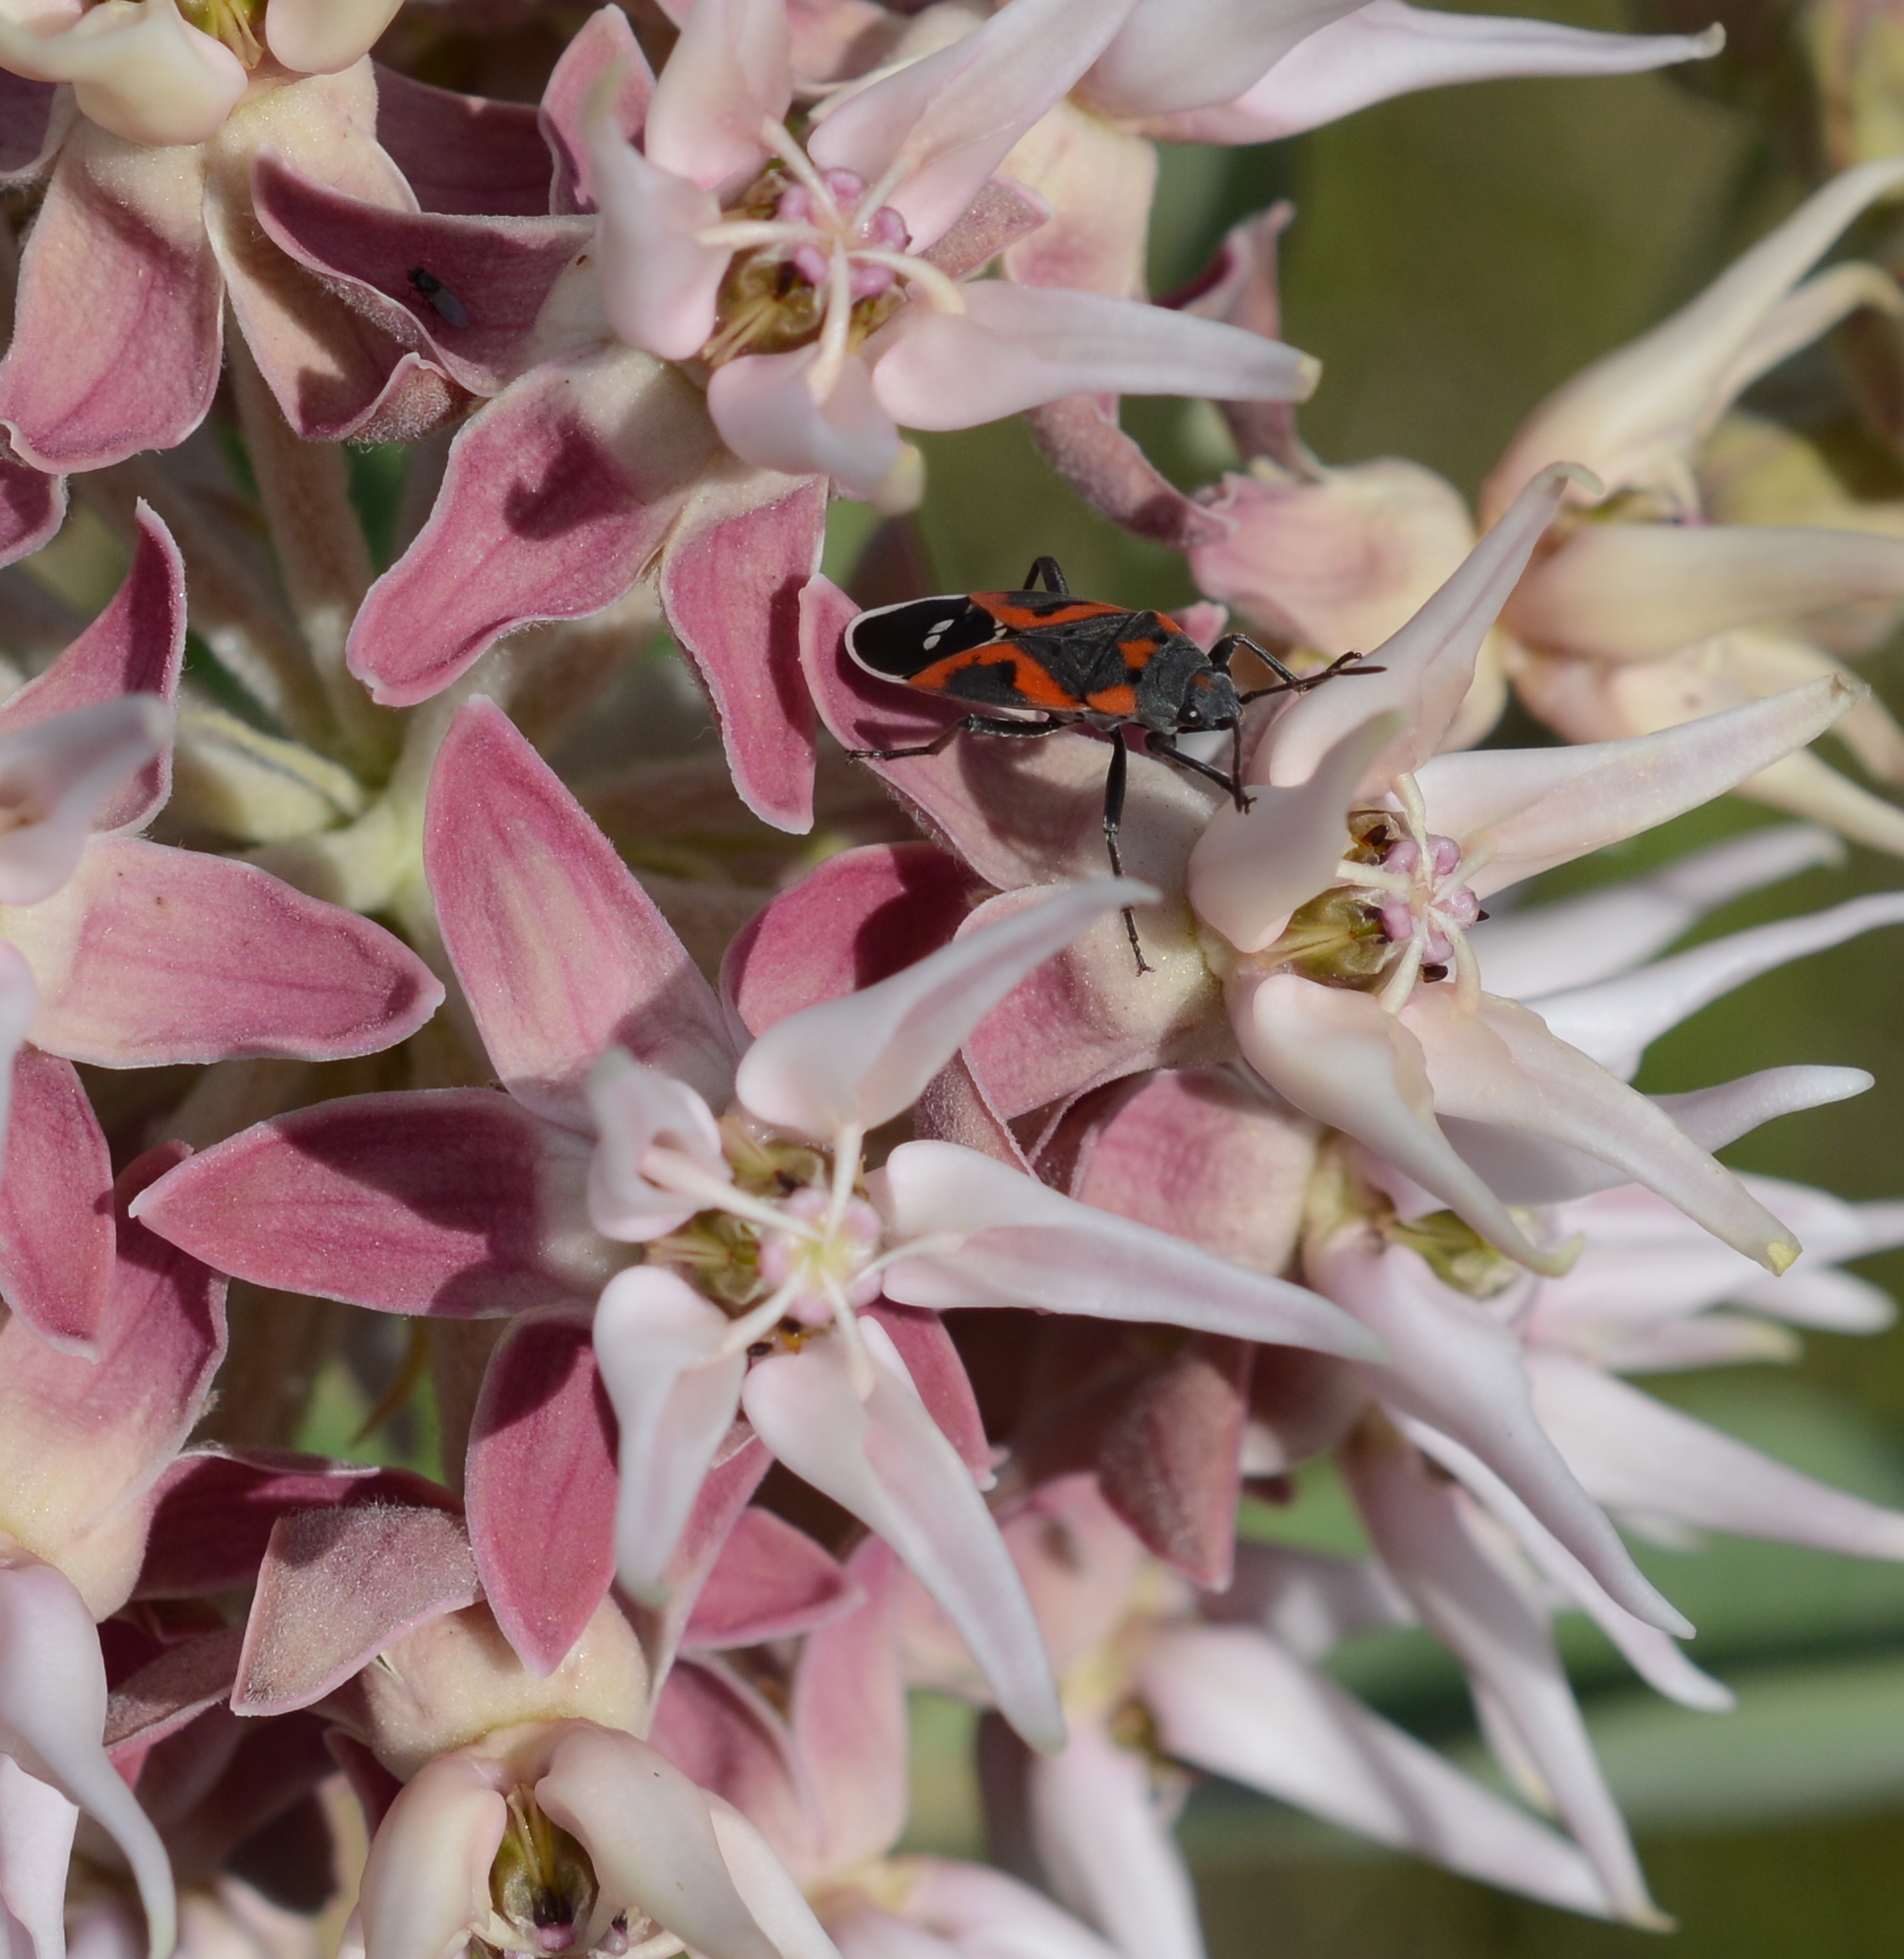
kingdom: Animalia
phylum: Arthropoda
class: Insecta
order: Hemiptera
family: Lygaeidae
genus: Lygaeus
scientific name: Lygaeus kalmii
